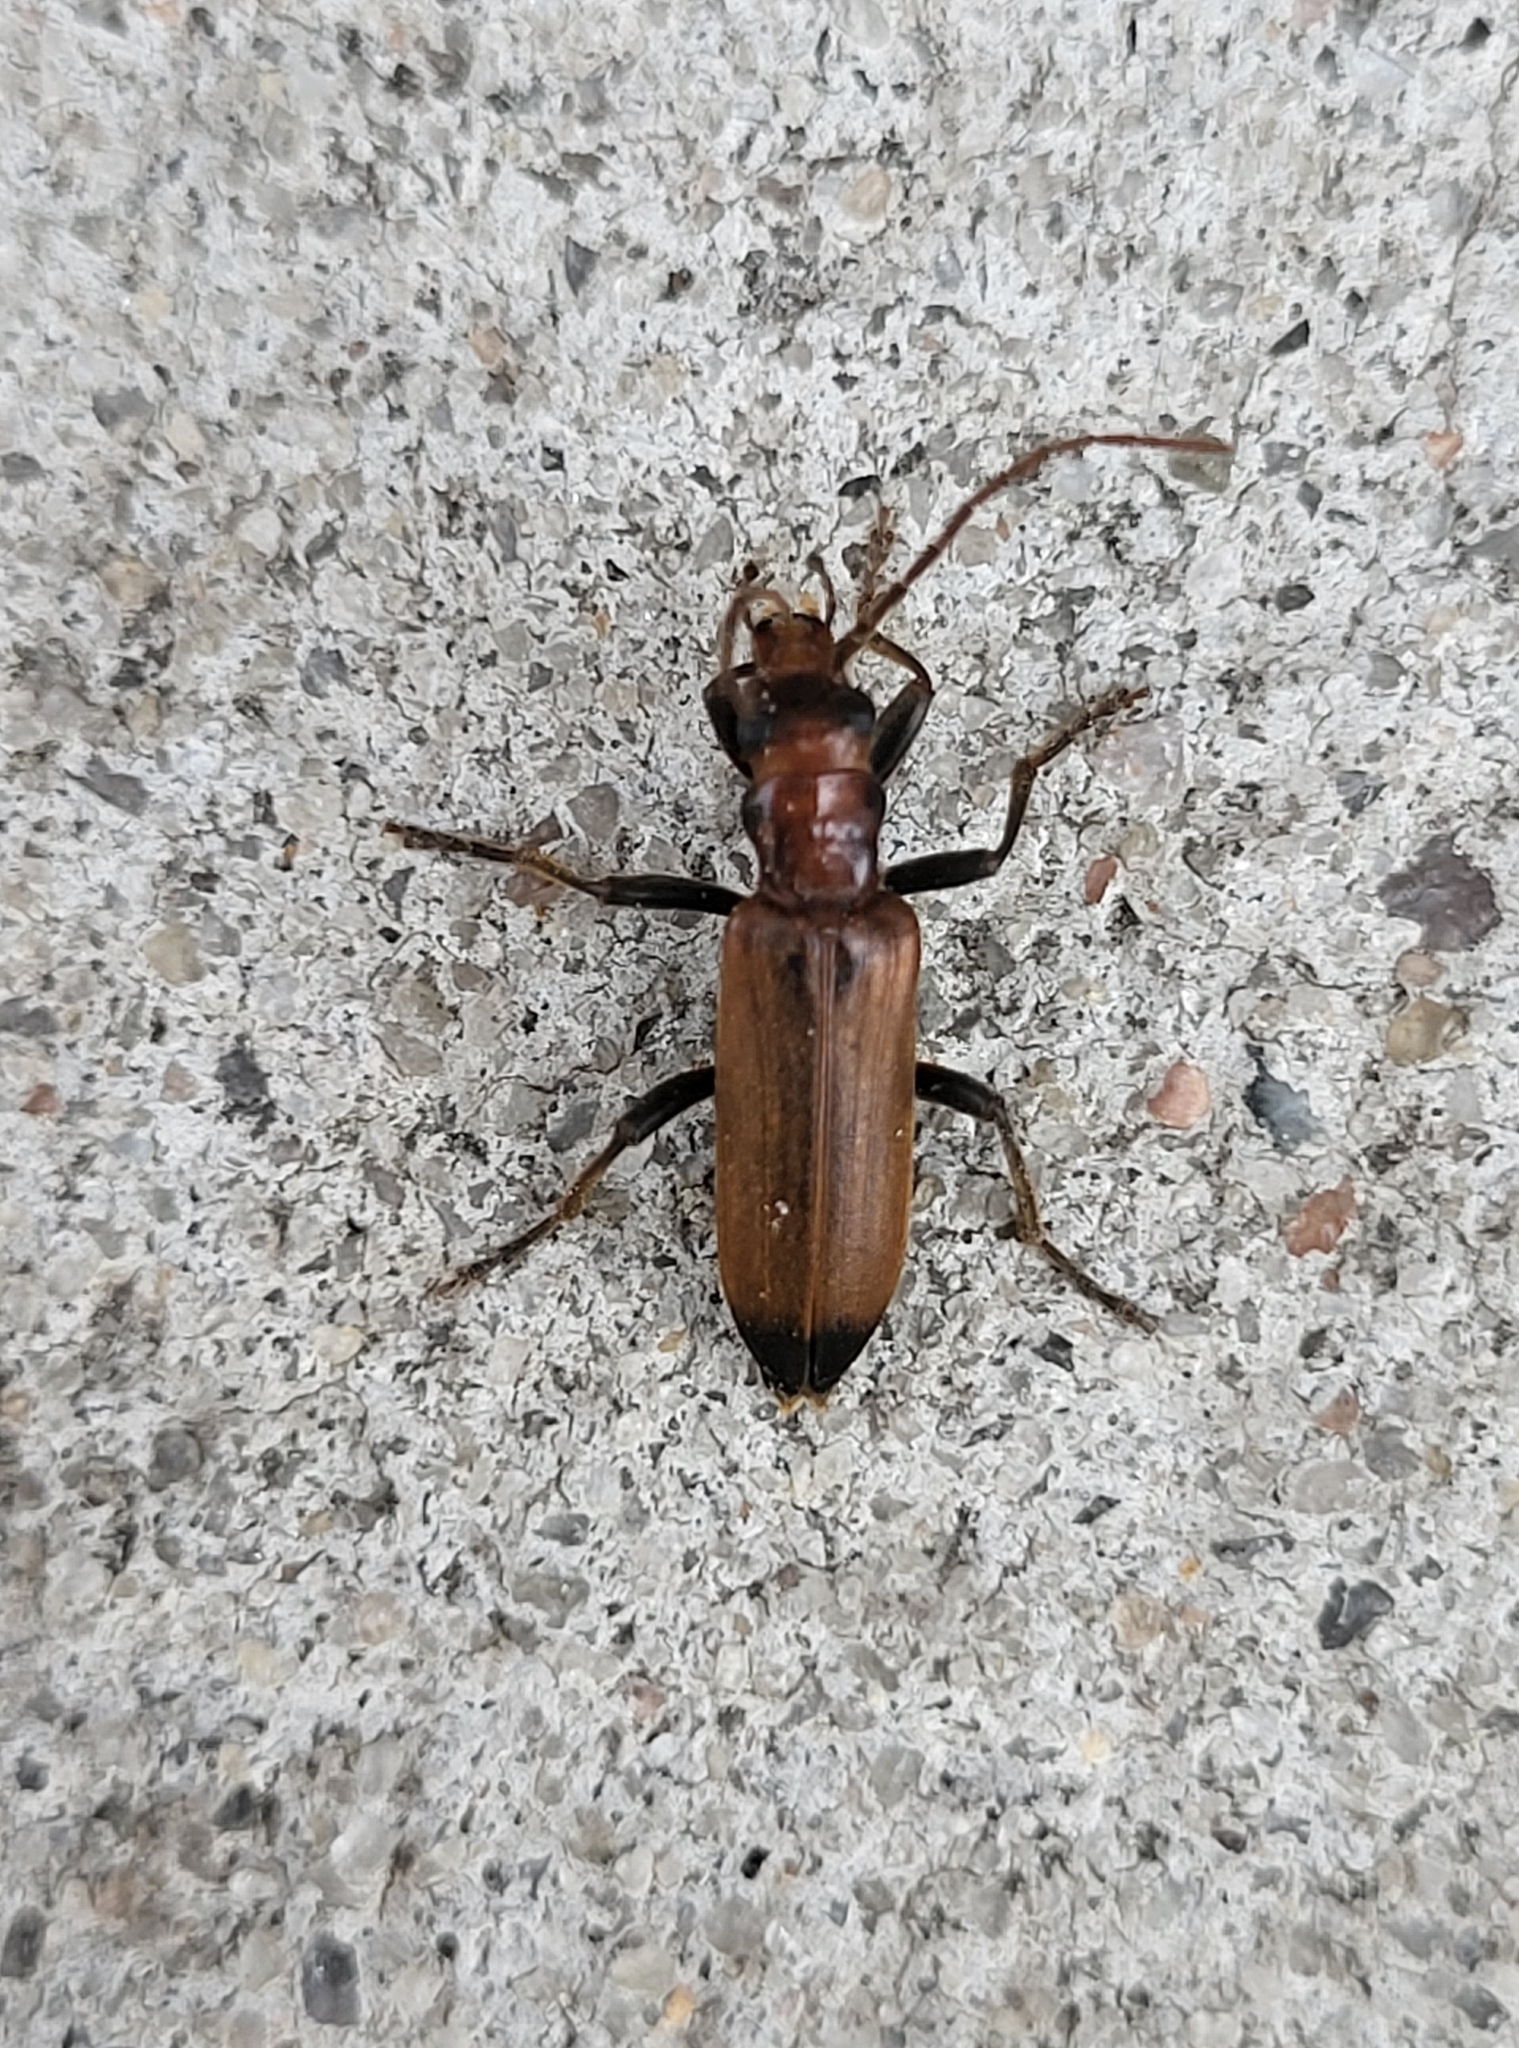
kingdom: Animalia
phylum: Arthropoda
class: Insecta
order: Coleoptera
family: Oedemeridae
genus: Nacerdes
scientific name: Nacerdes melanura
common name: Wharf borer
